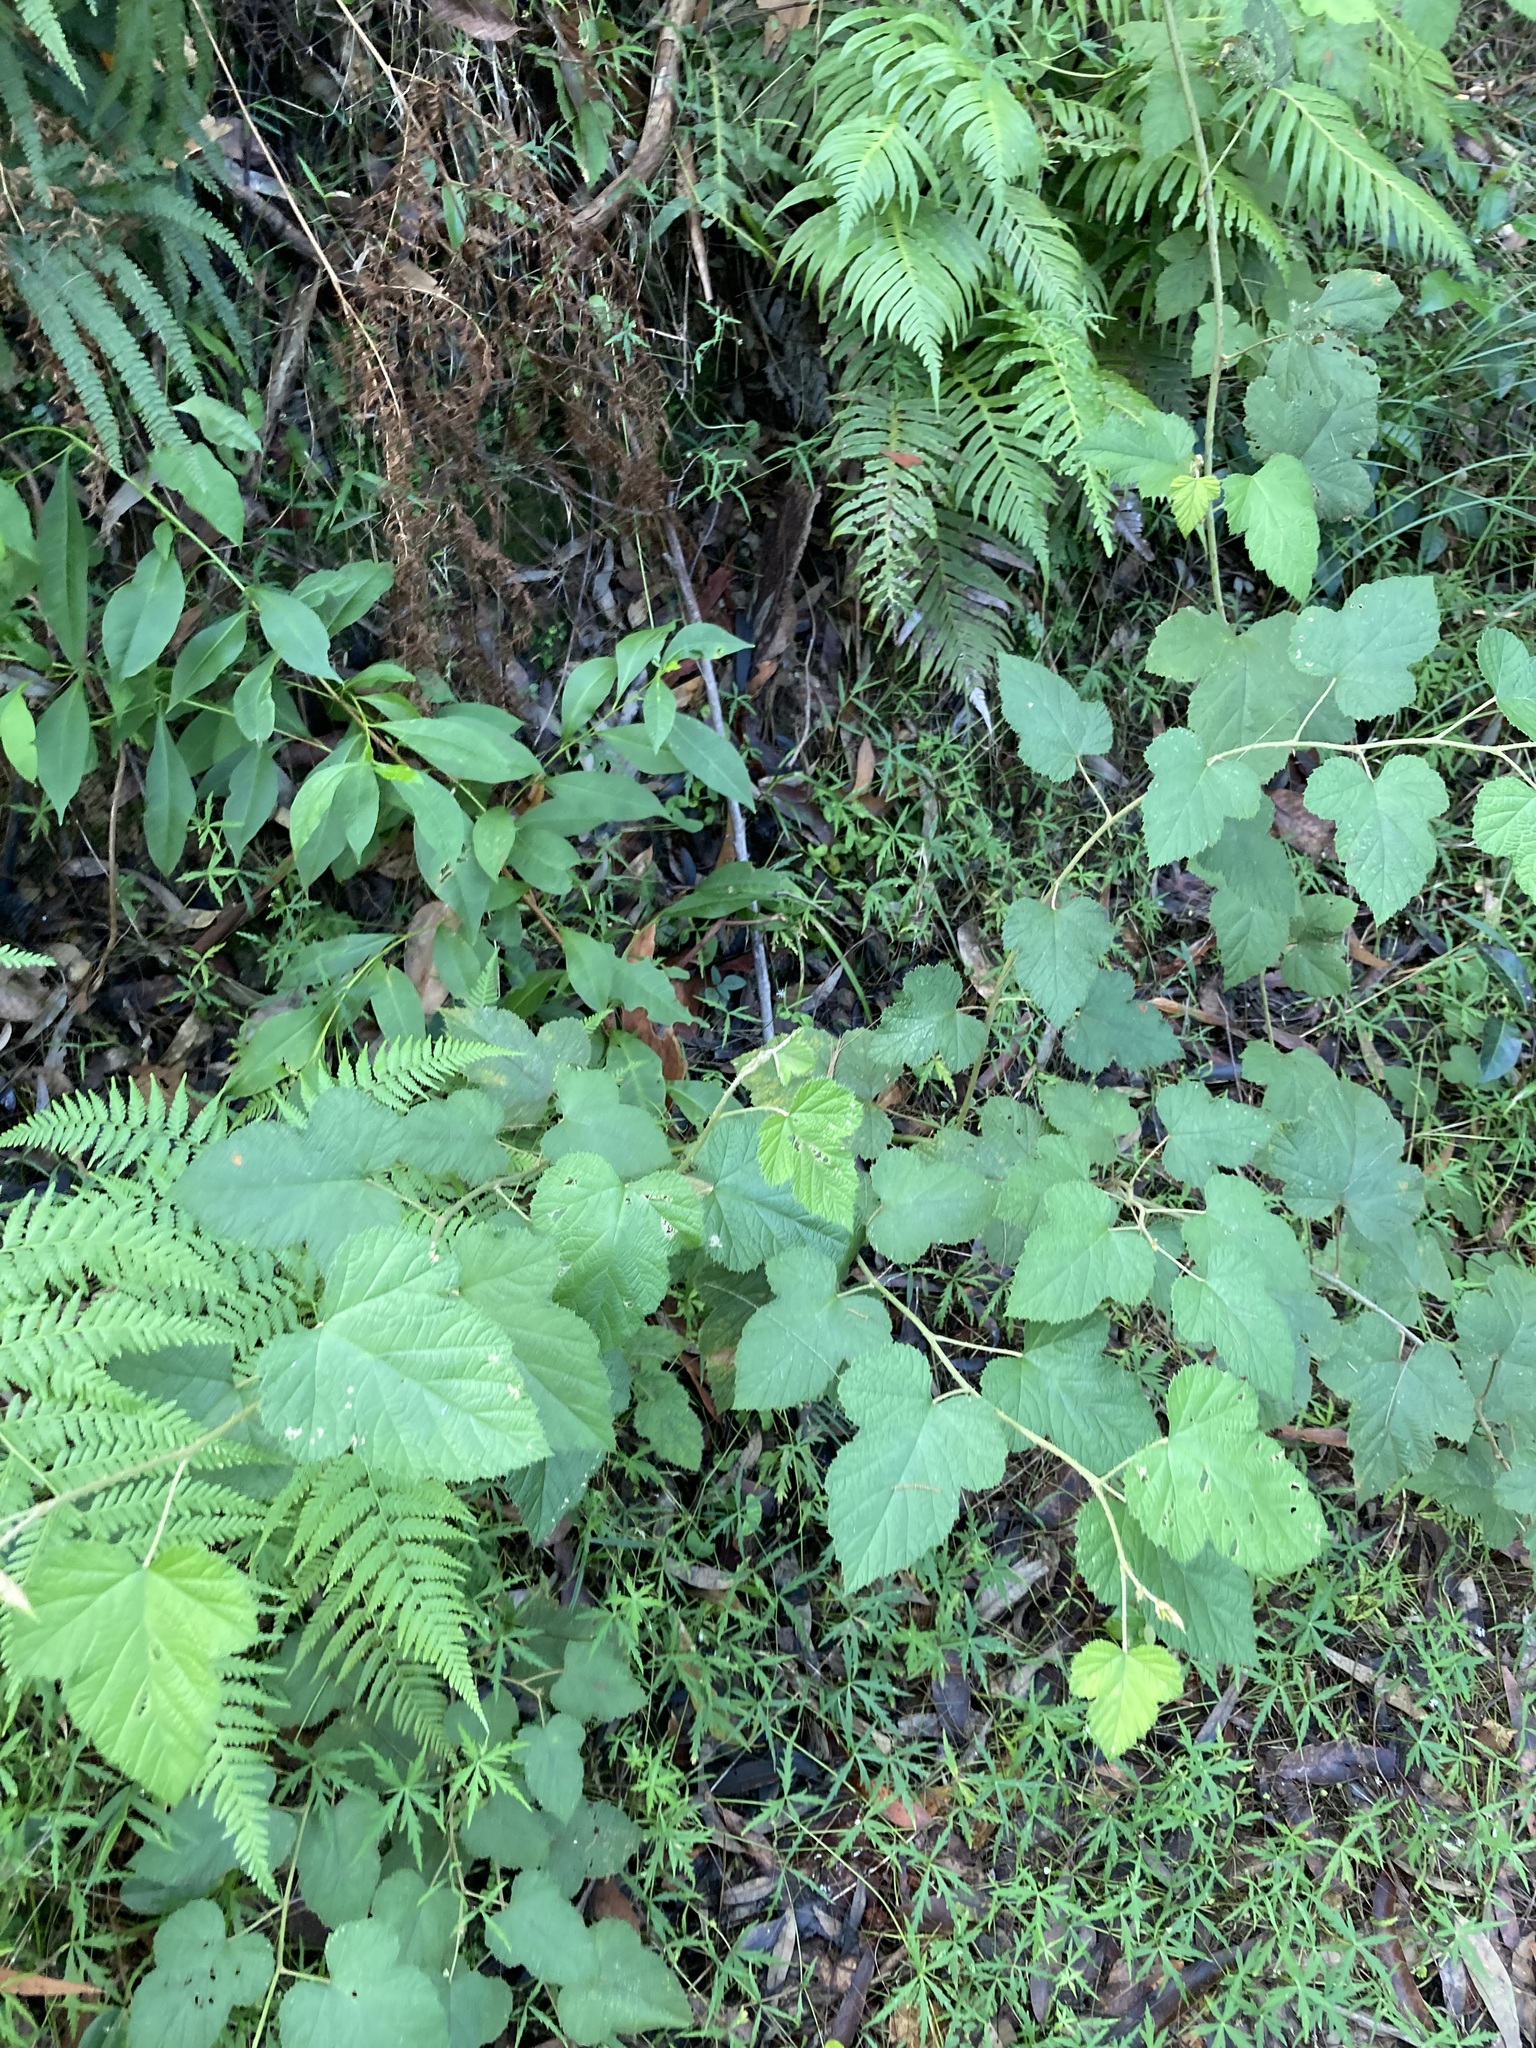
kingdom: Plantae
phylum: Tracheophyta
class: Magnoliopsida
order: Rosales
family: Rosaceae
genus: Rubus
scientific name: Rubus moluccanus
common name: Wild raspberry
